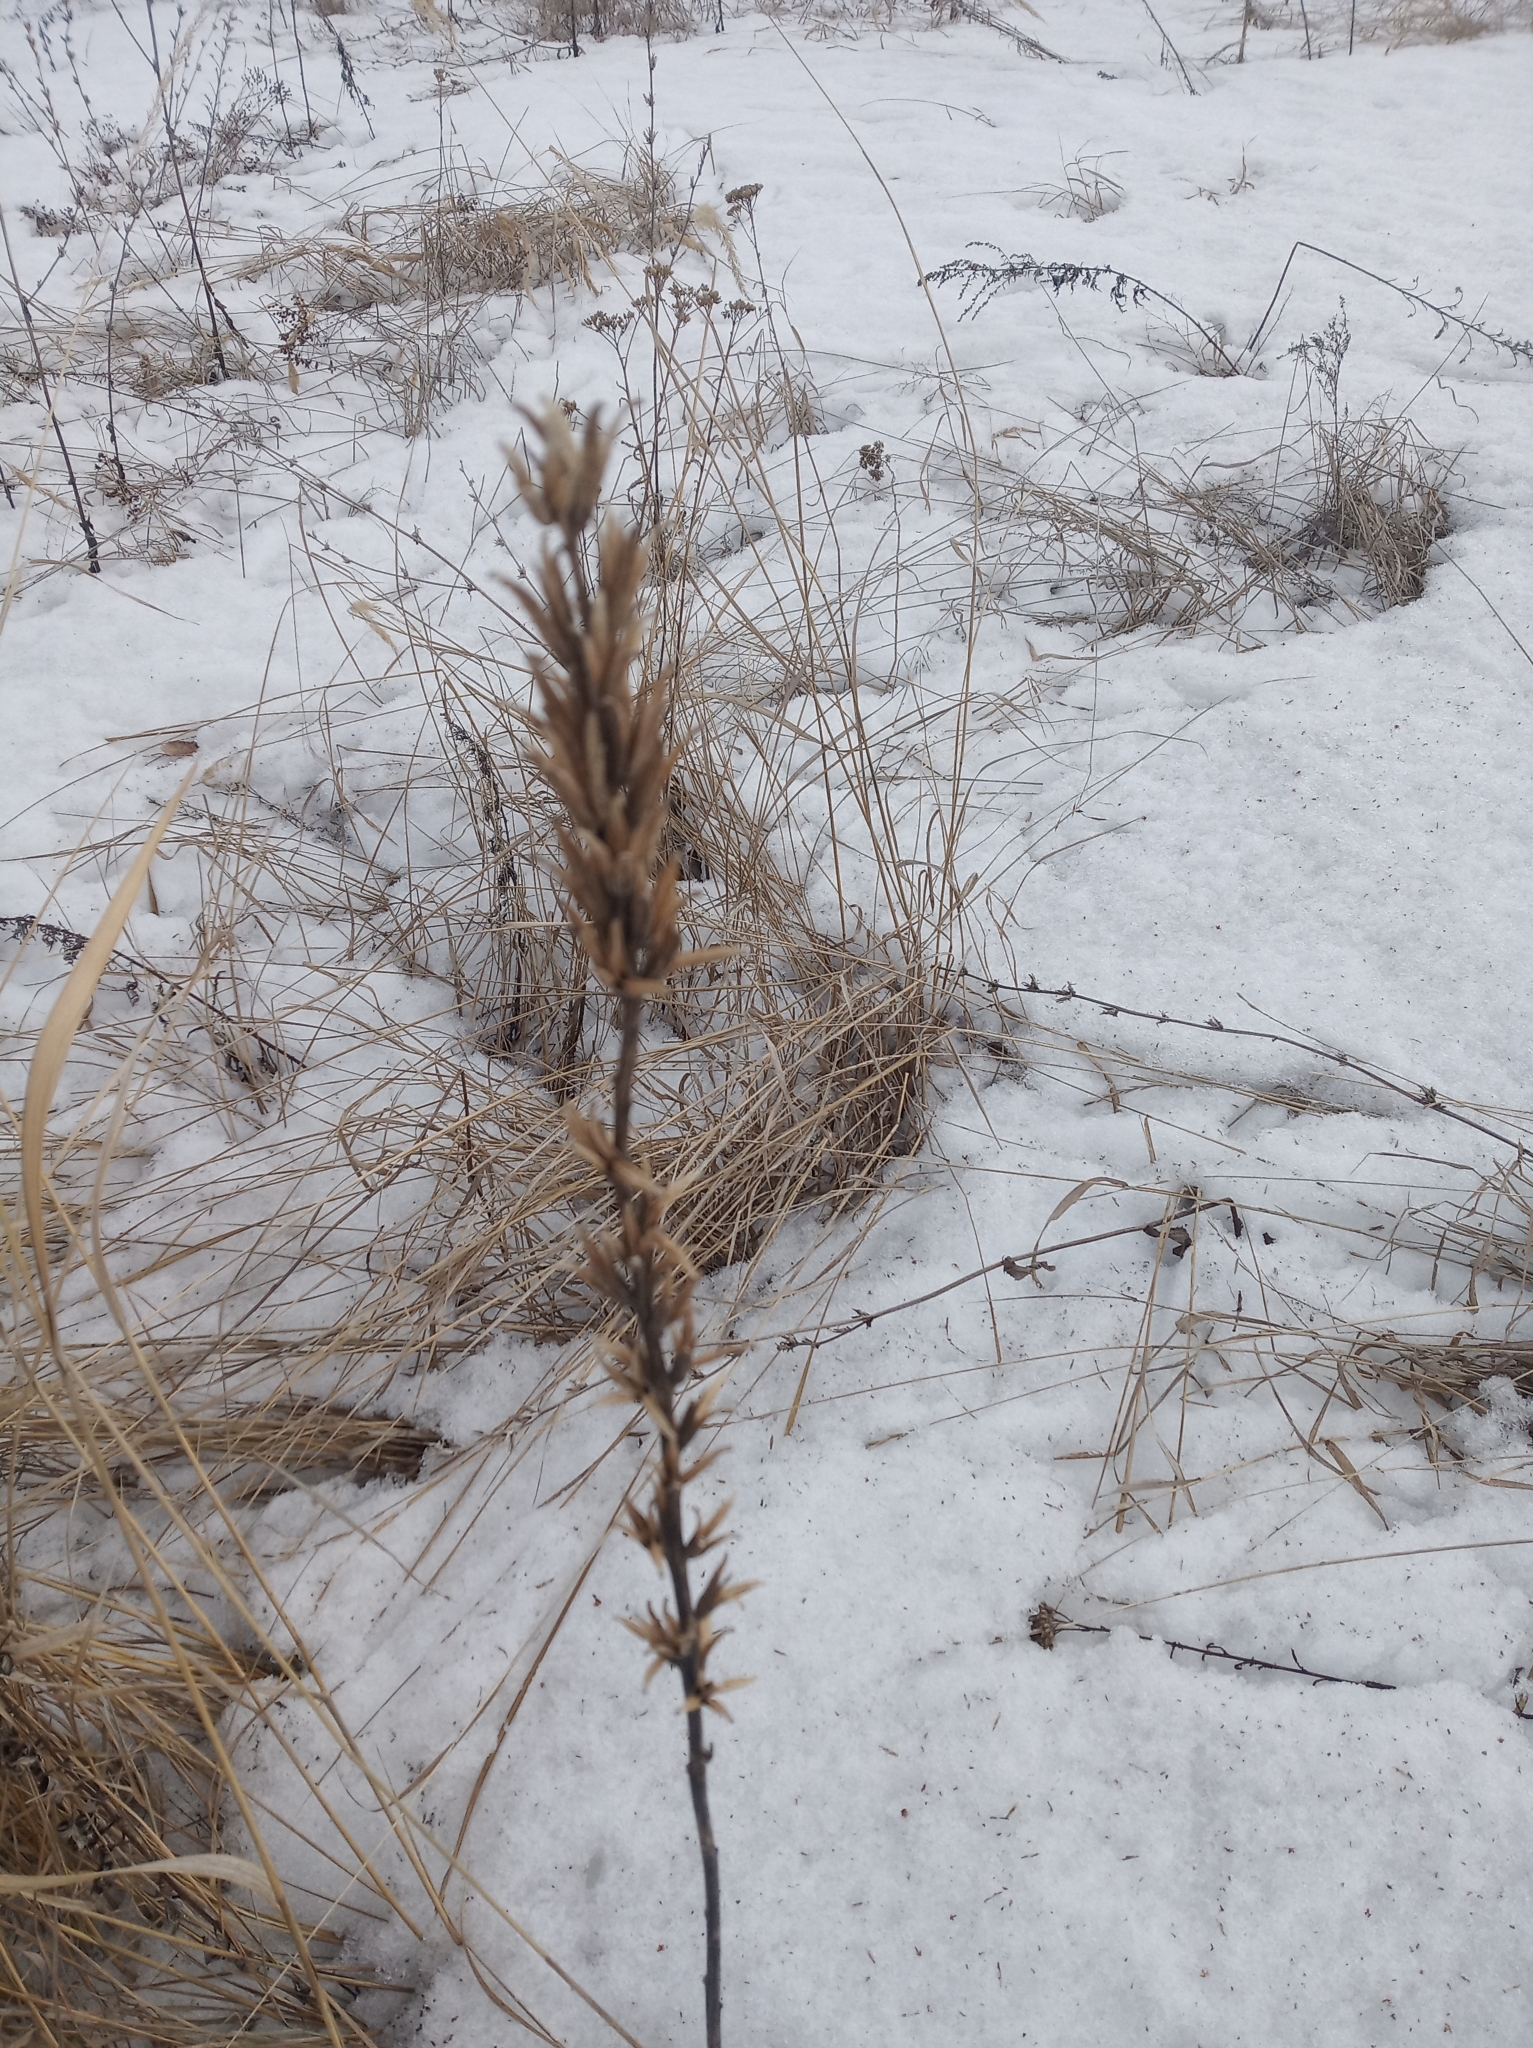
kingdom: Plantae
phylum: Tracheophyta
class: Magnoliopsida
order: Myrtales
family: Onagraceae
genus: Oenothera
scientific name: Oenothera
